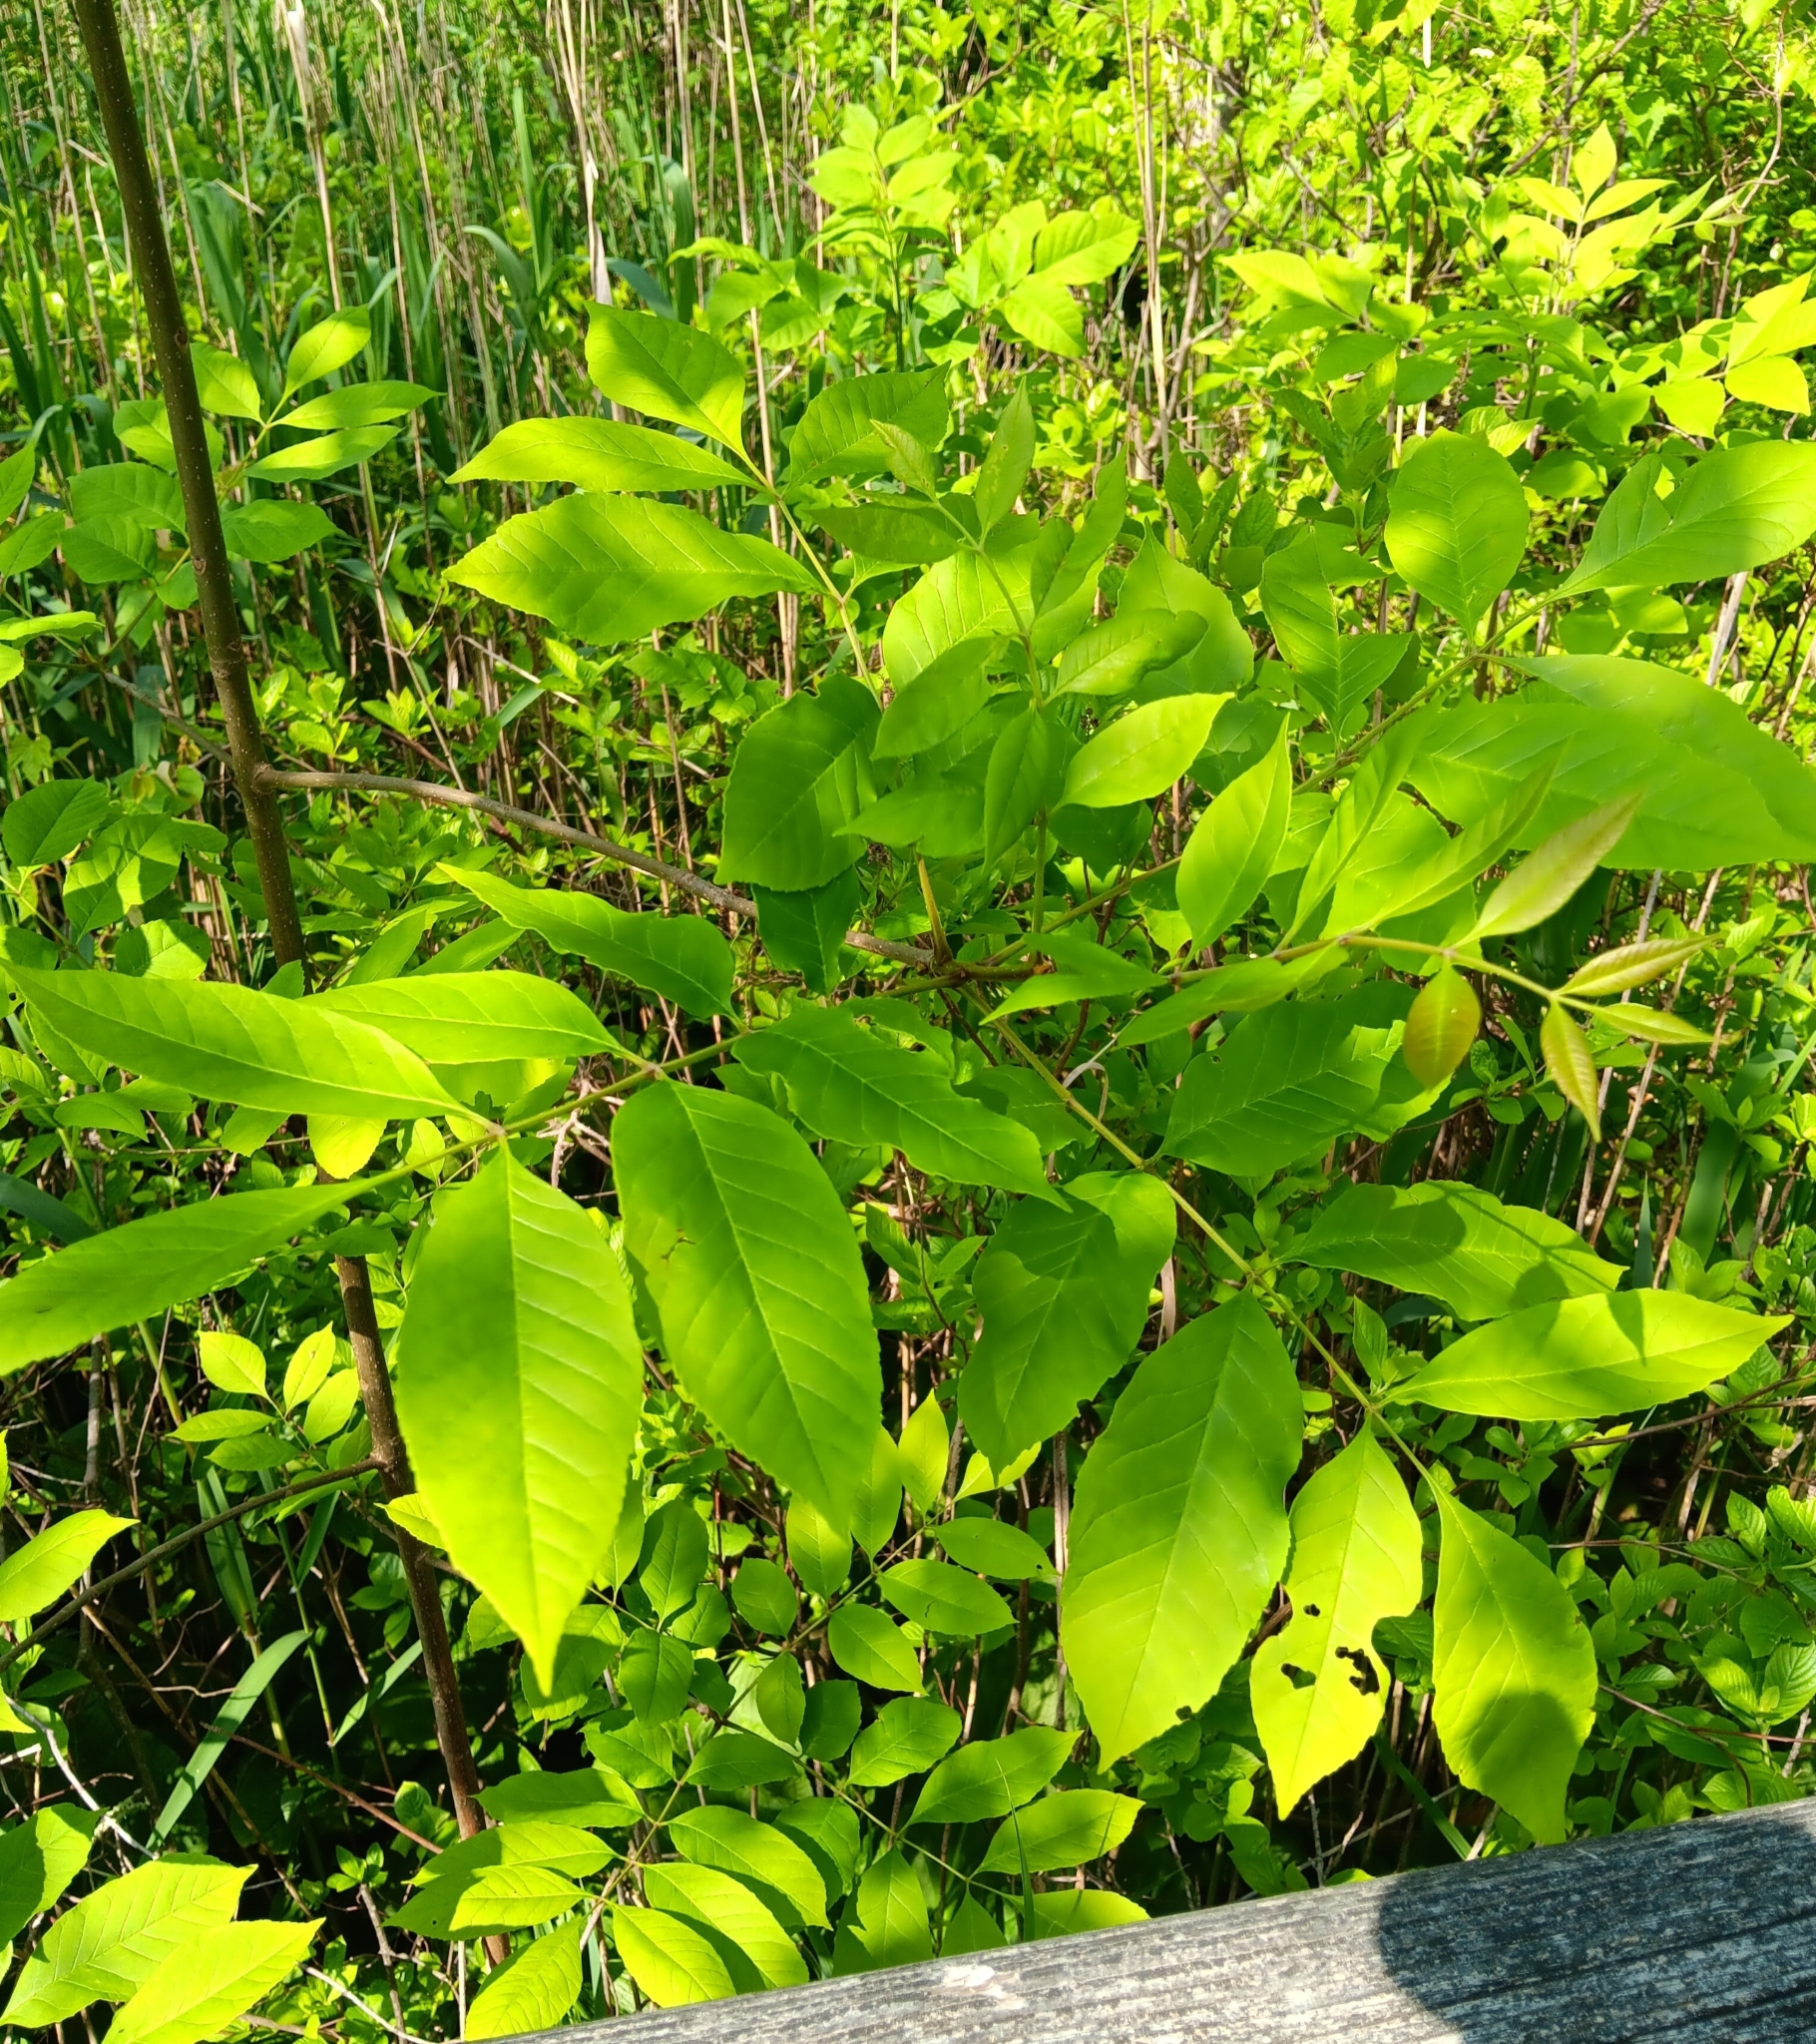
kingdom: Plantae
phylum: Tracheophyta
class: Magnoliopsida
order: Lamiales
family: Oleaceae
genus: Fraxinus
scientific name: Fraxinus pennsylvanica
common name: Green ash
